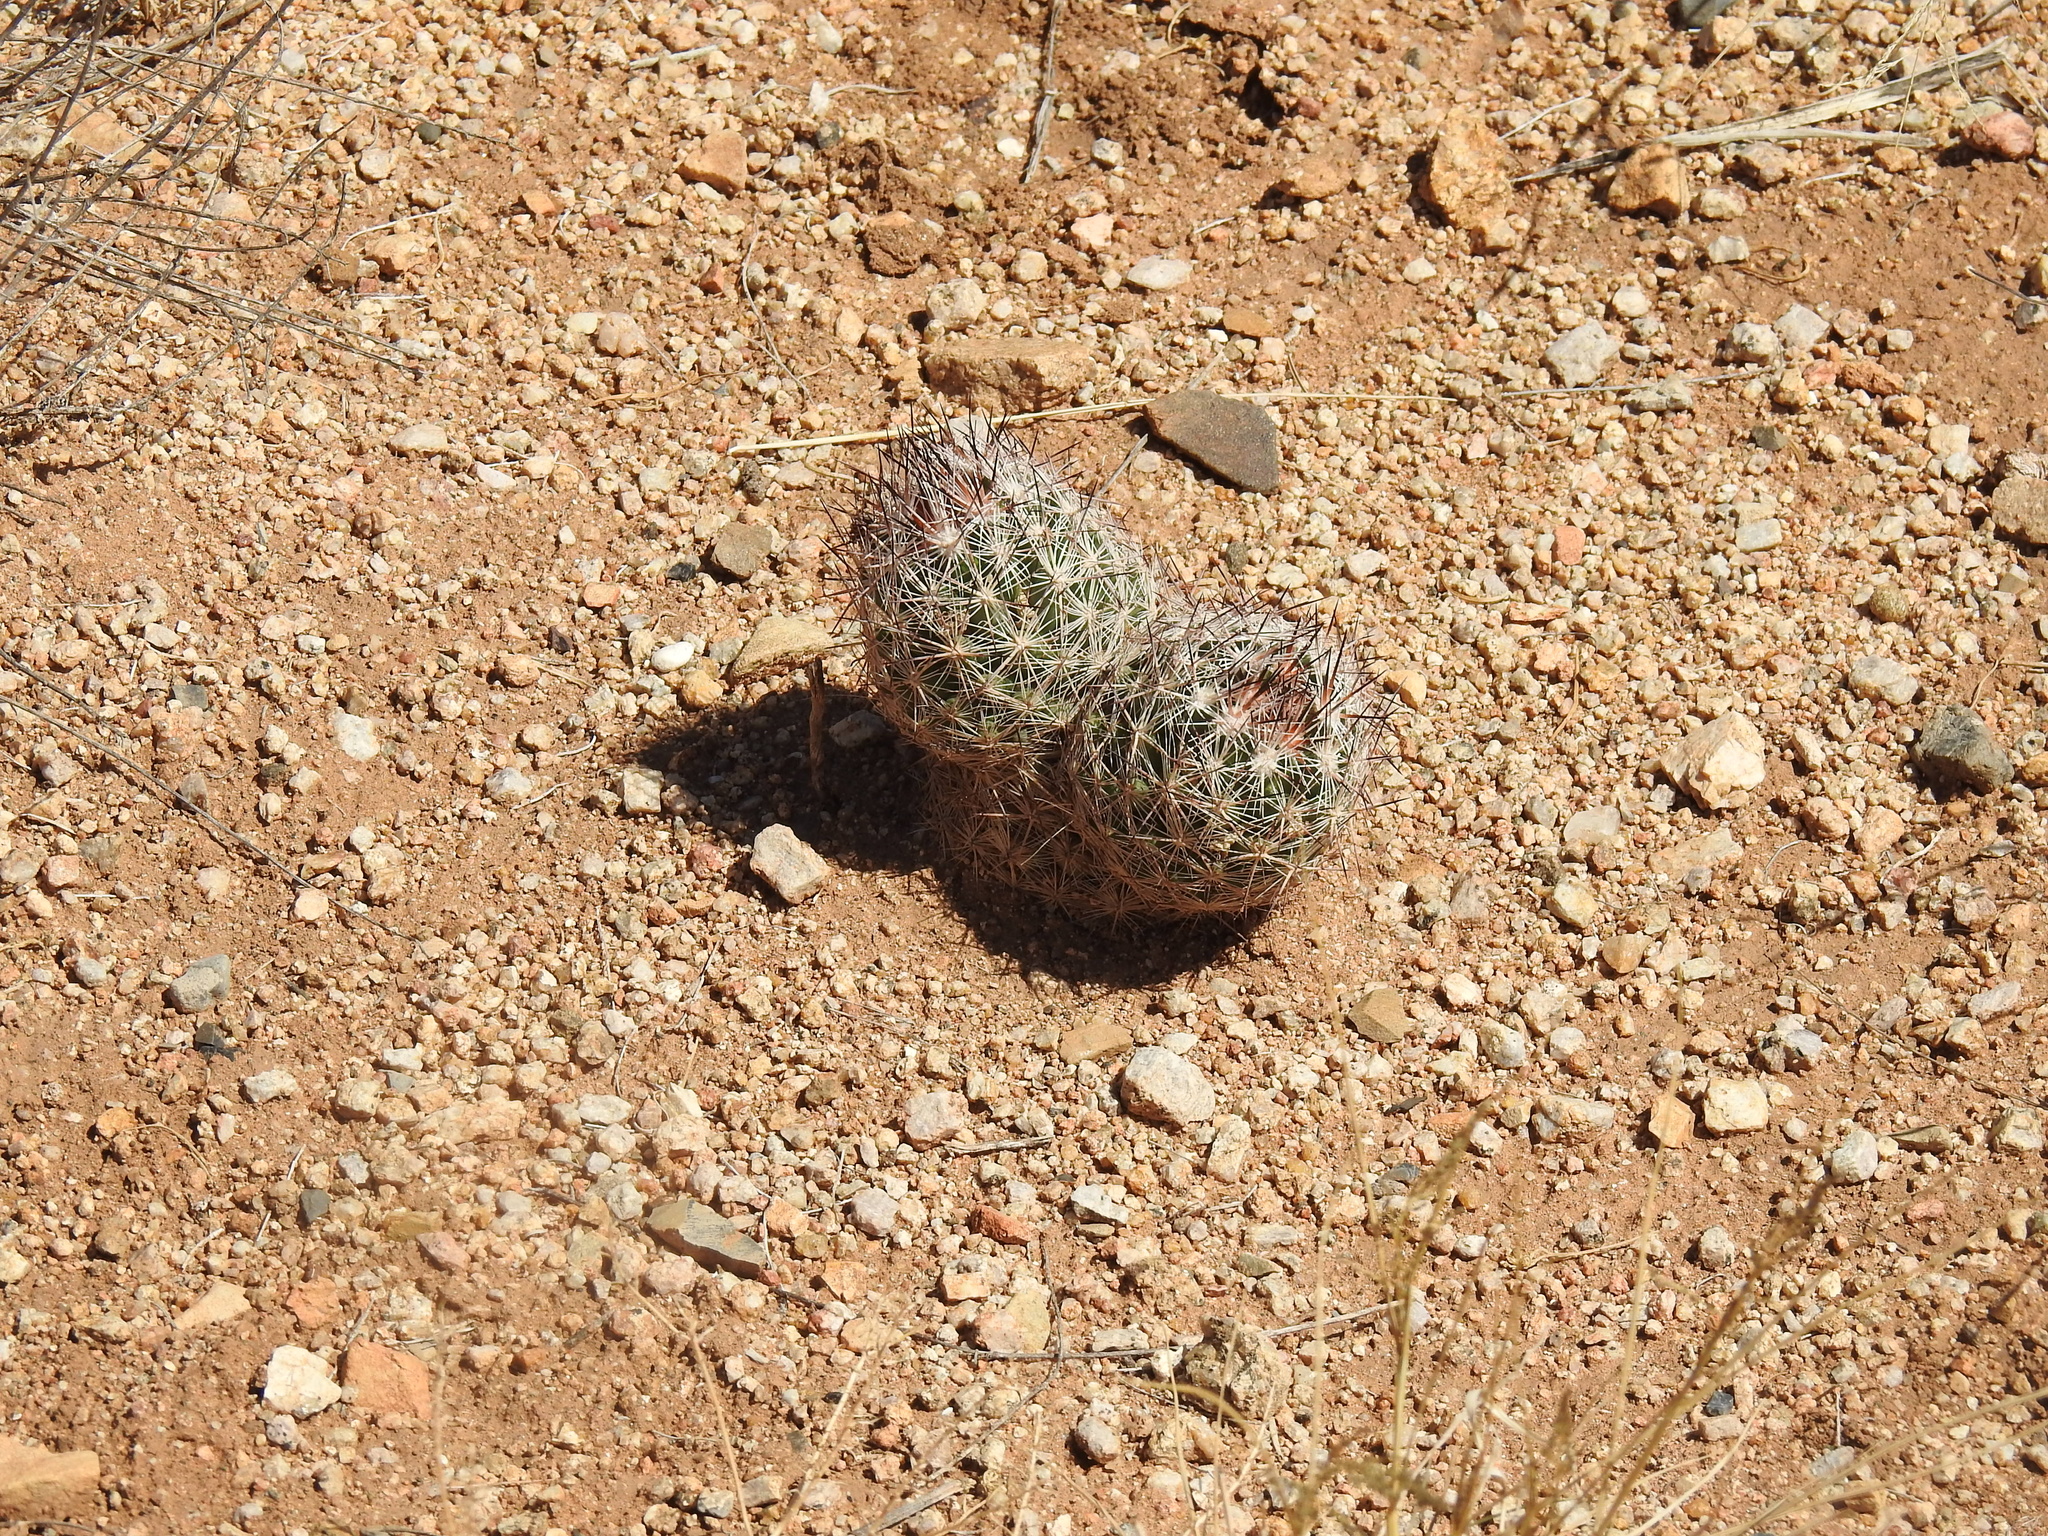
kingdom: Plantae
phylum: Tracheophyta
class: Magnoliopsida
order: Caryophyllales
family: Cactaceae
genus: Pelecyphora
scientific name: Pelecyphora vivipara
